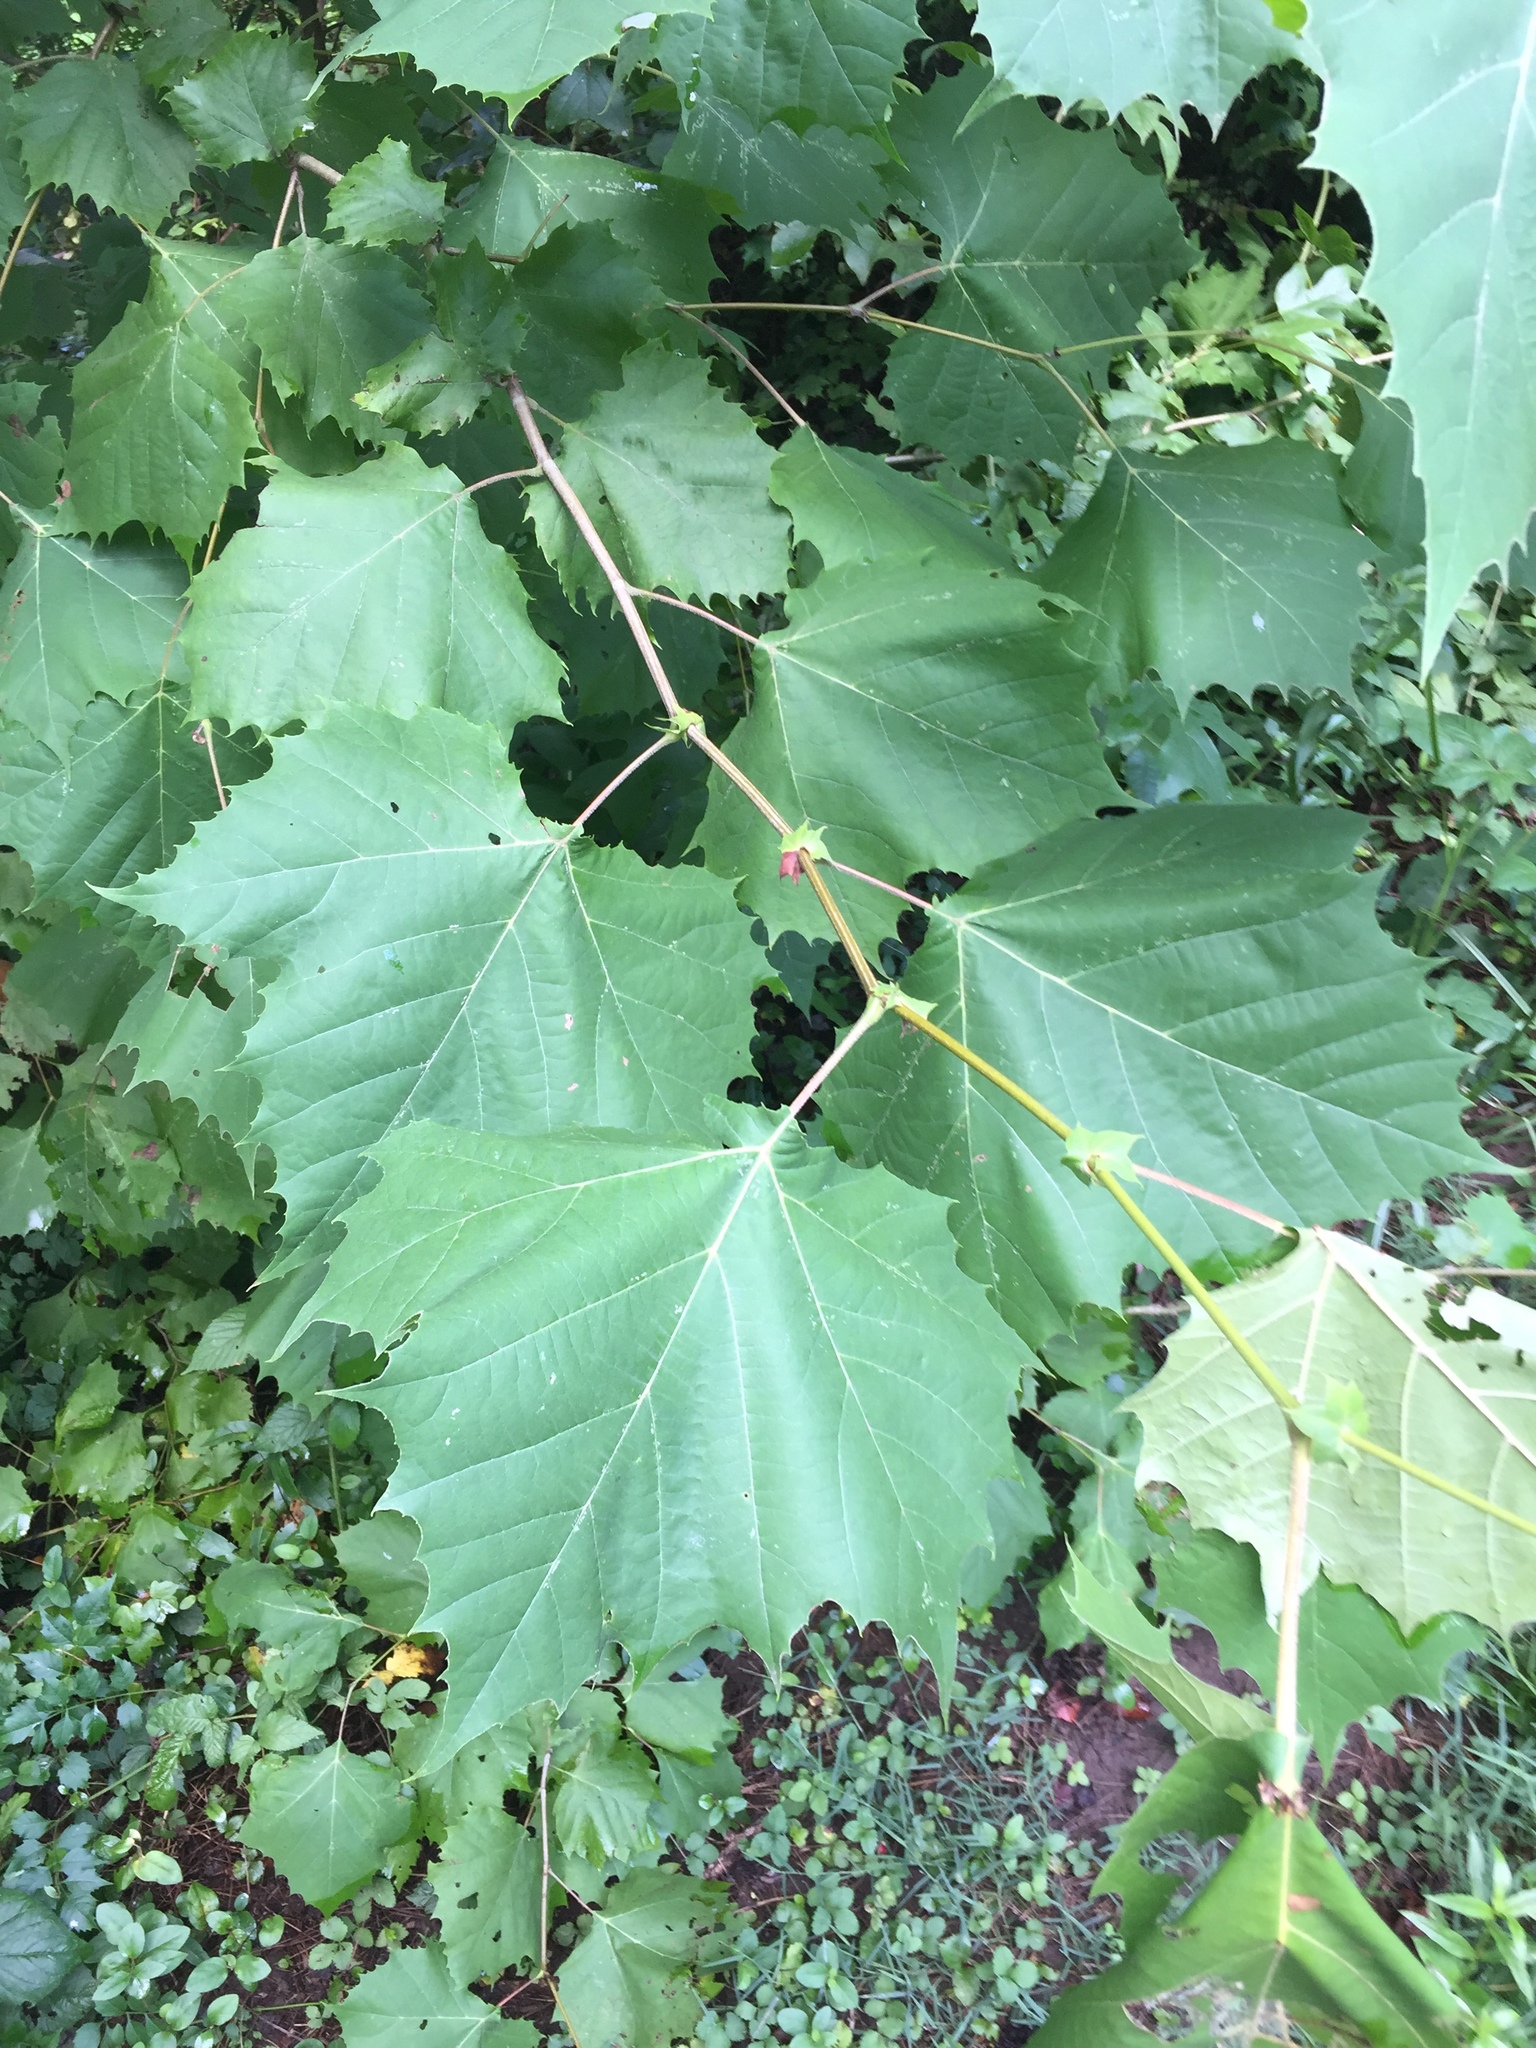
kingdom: Plantae
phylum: Tracheophyta
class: Magnoliopsida
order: Proteales
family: Platanaceae
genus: Platanus
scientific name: Platanus occidentalis
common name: American sycamore
